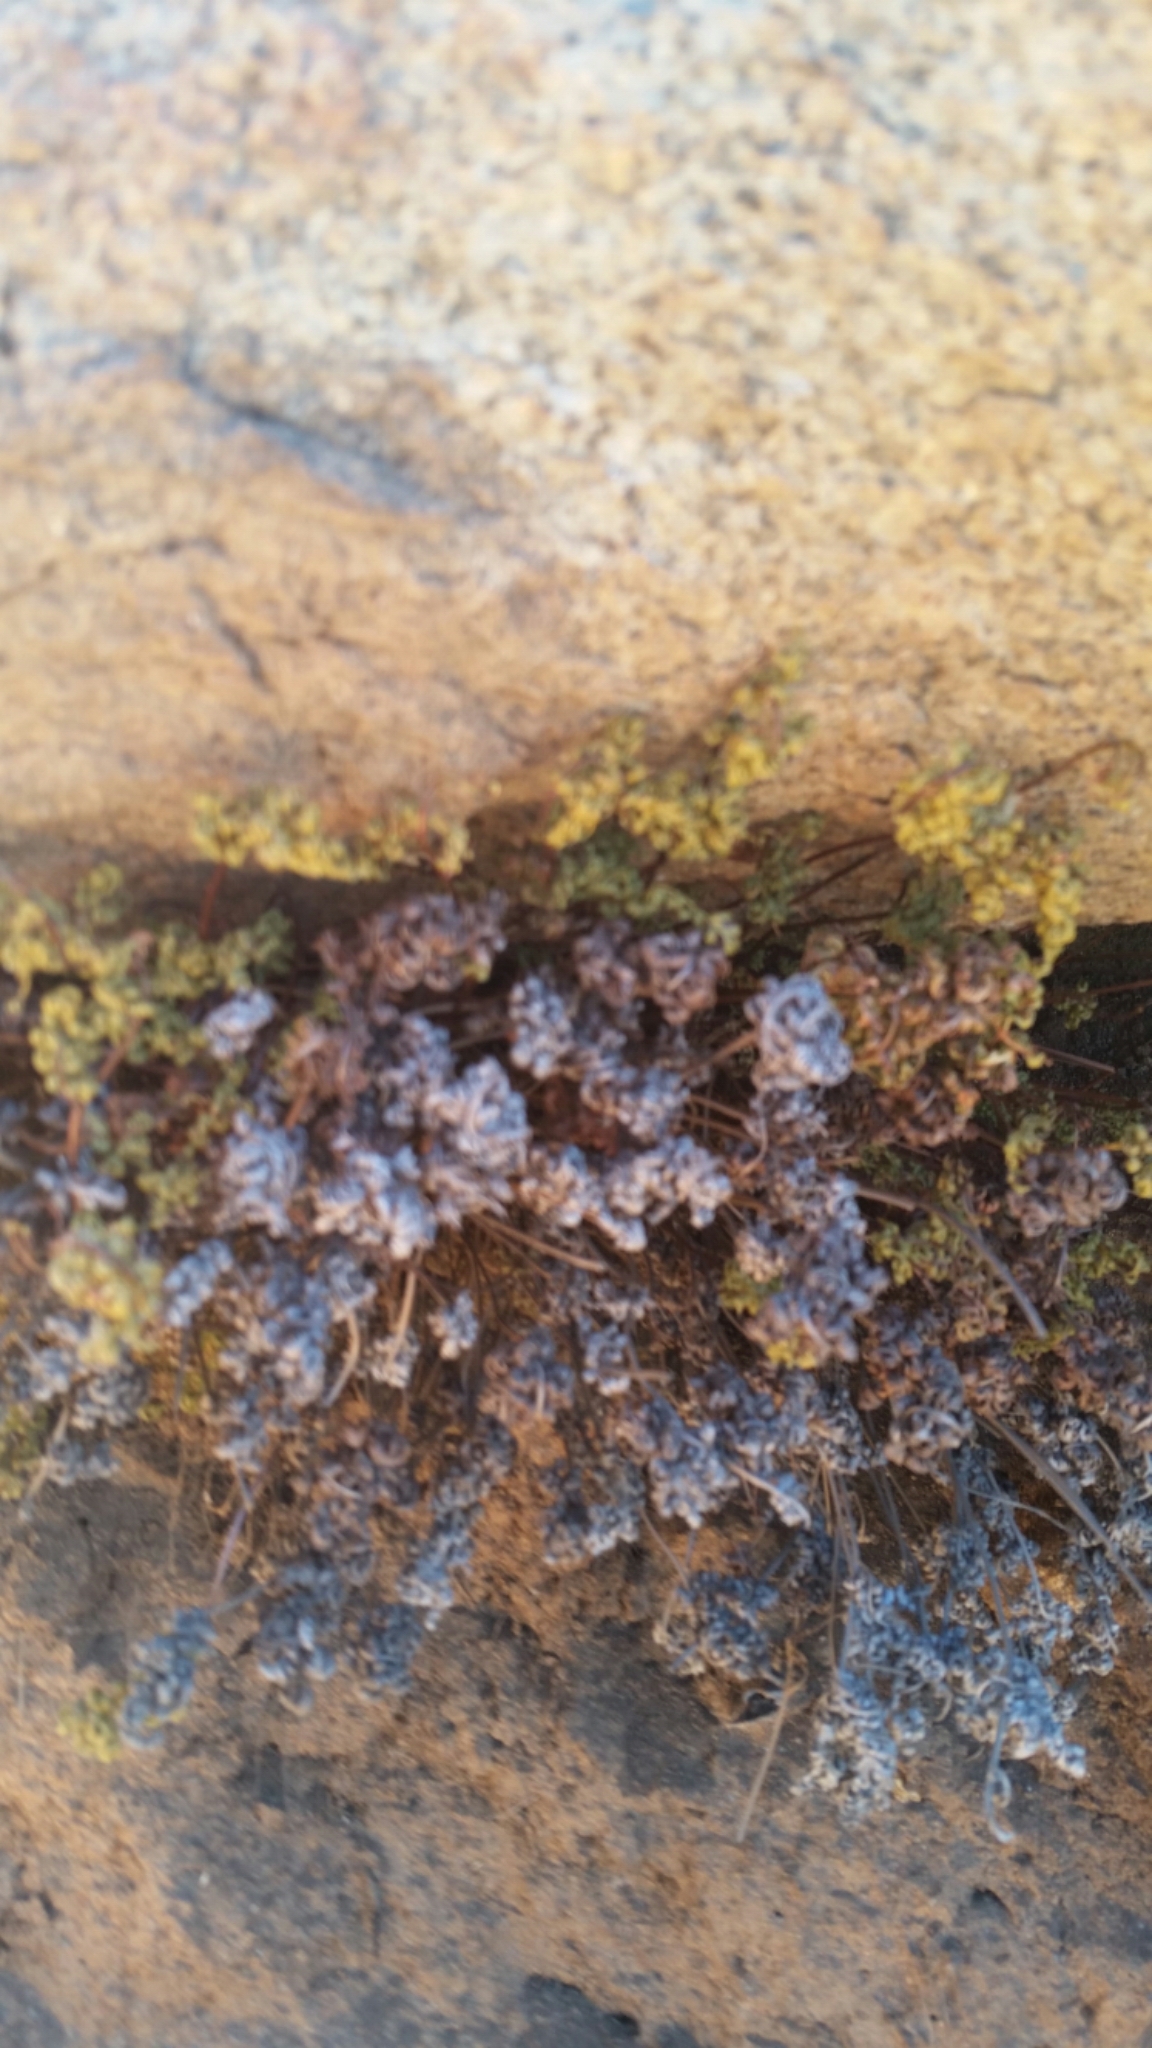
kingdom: Plantae
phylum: Tracheophyta
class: Polypodiopsida
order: Polypodiales
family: Pteridaceae
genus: Aspidotis
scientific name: Aspidotis californica
